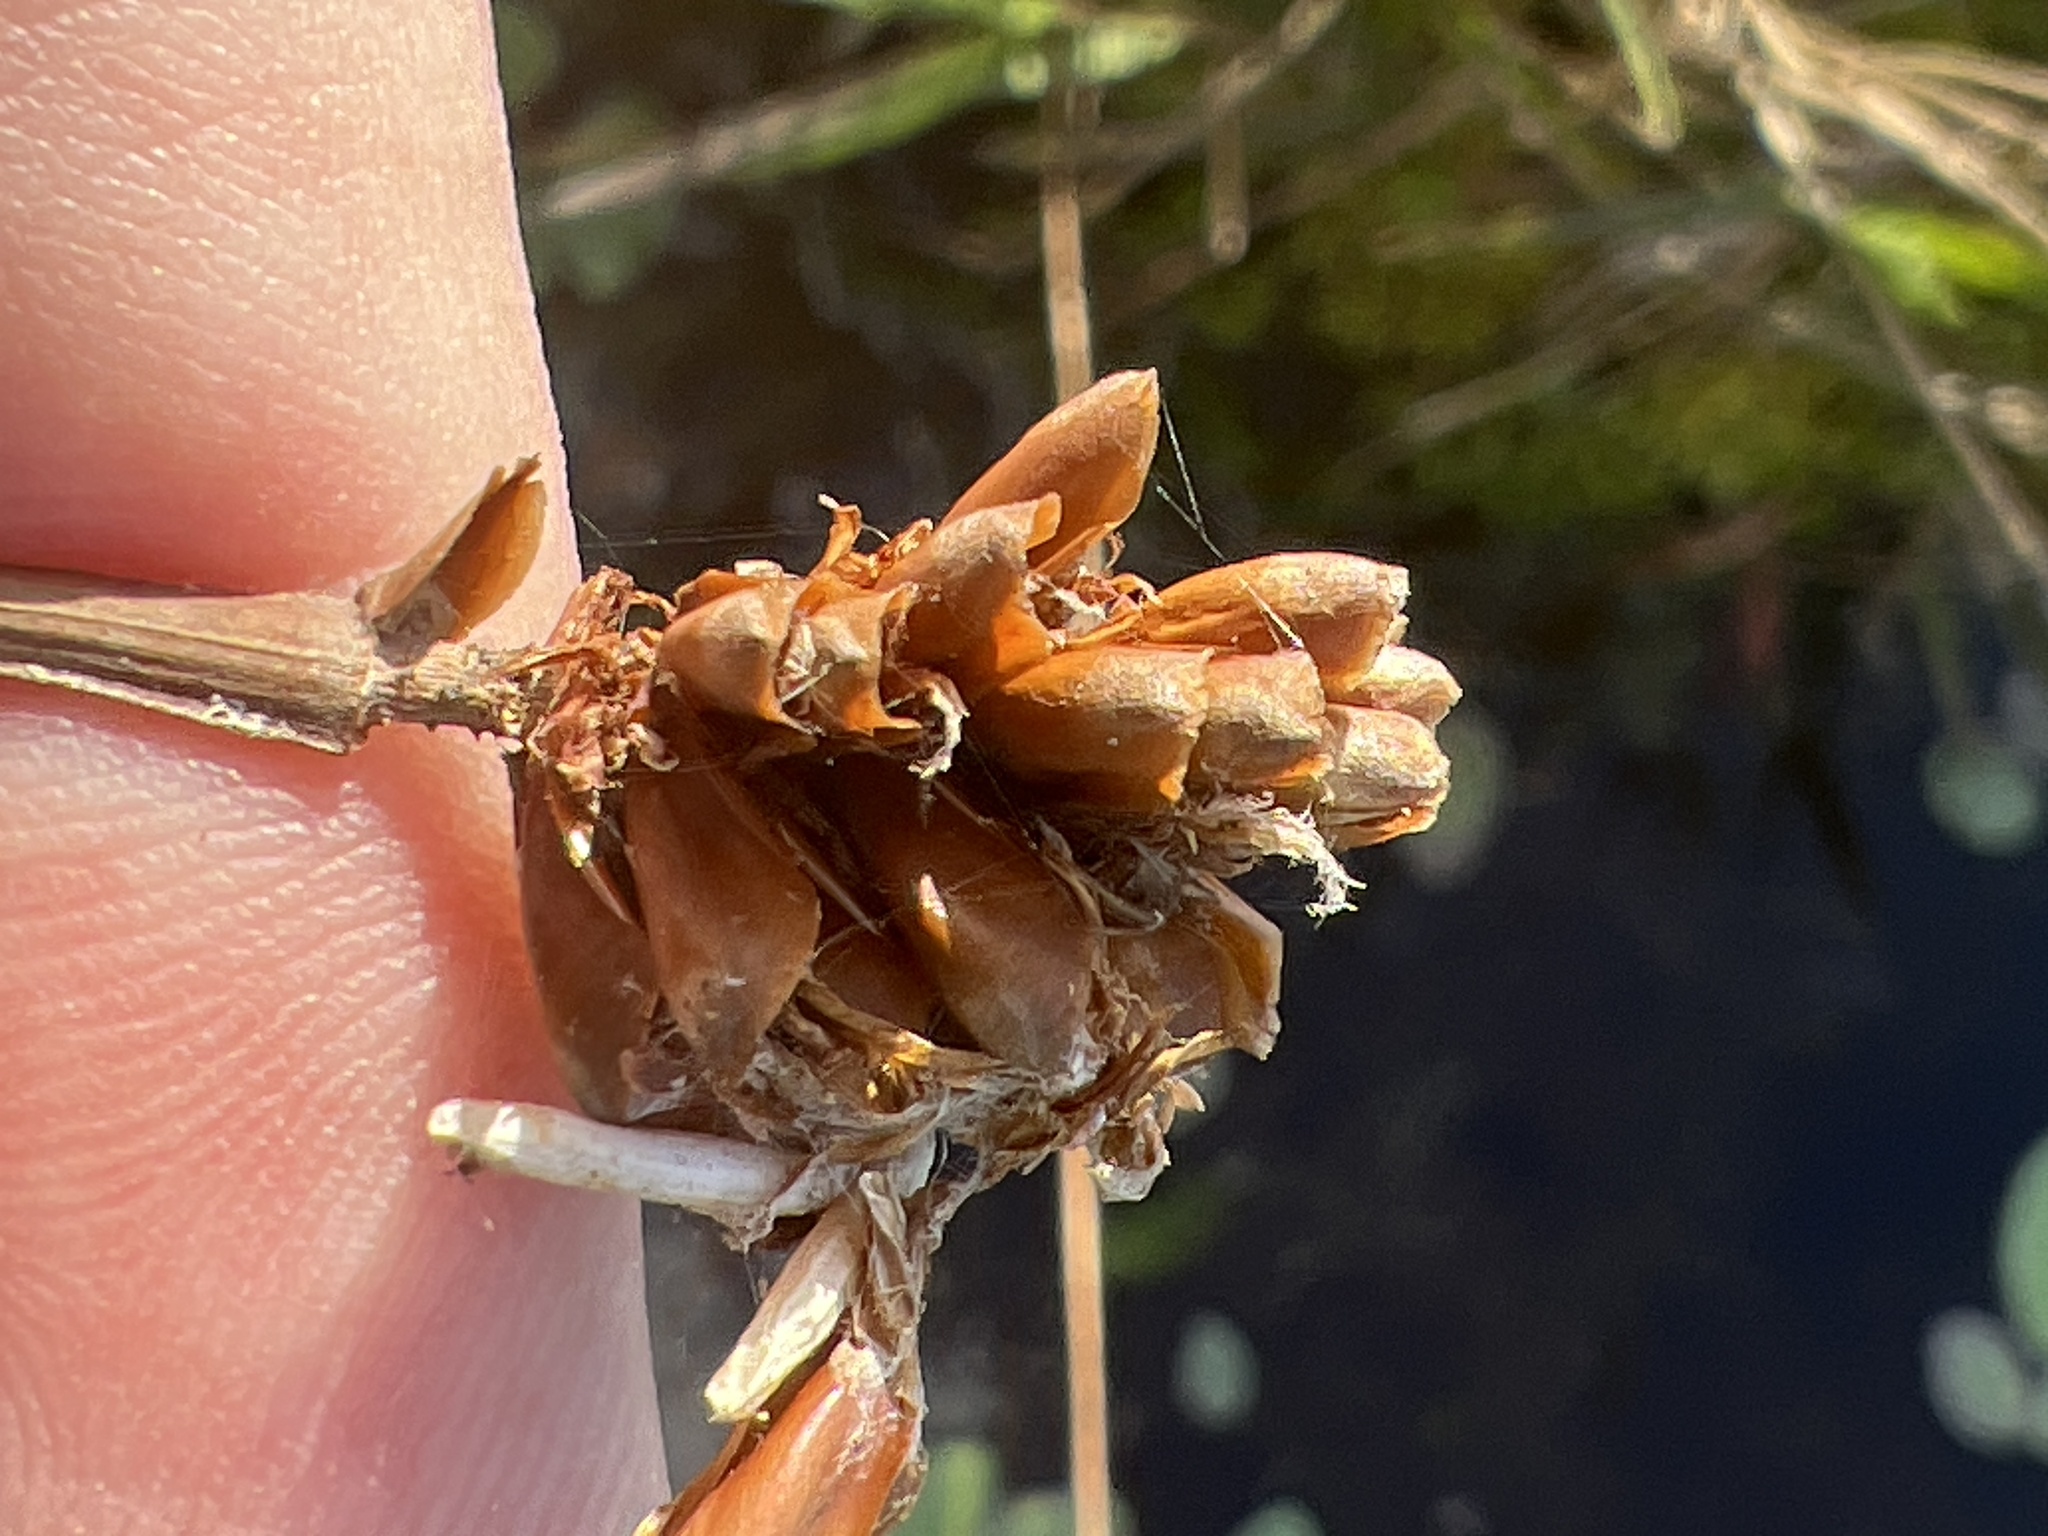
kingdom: Plantae
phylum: Tracheophyta
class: Liliopsida
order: Poales
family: Xyridaceae
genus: Xyris
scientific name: Xyris fimbriata
